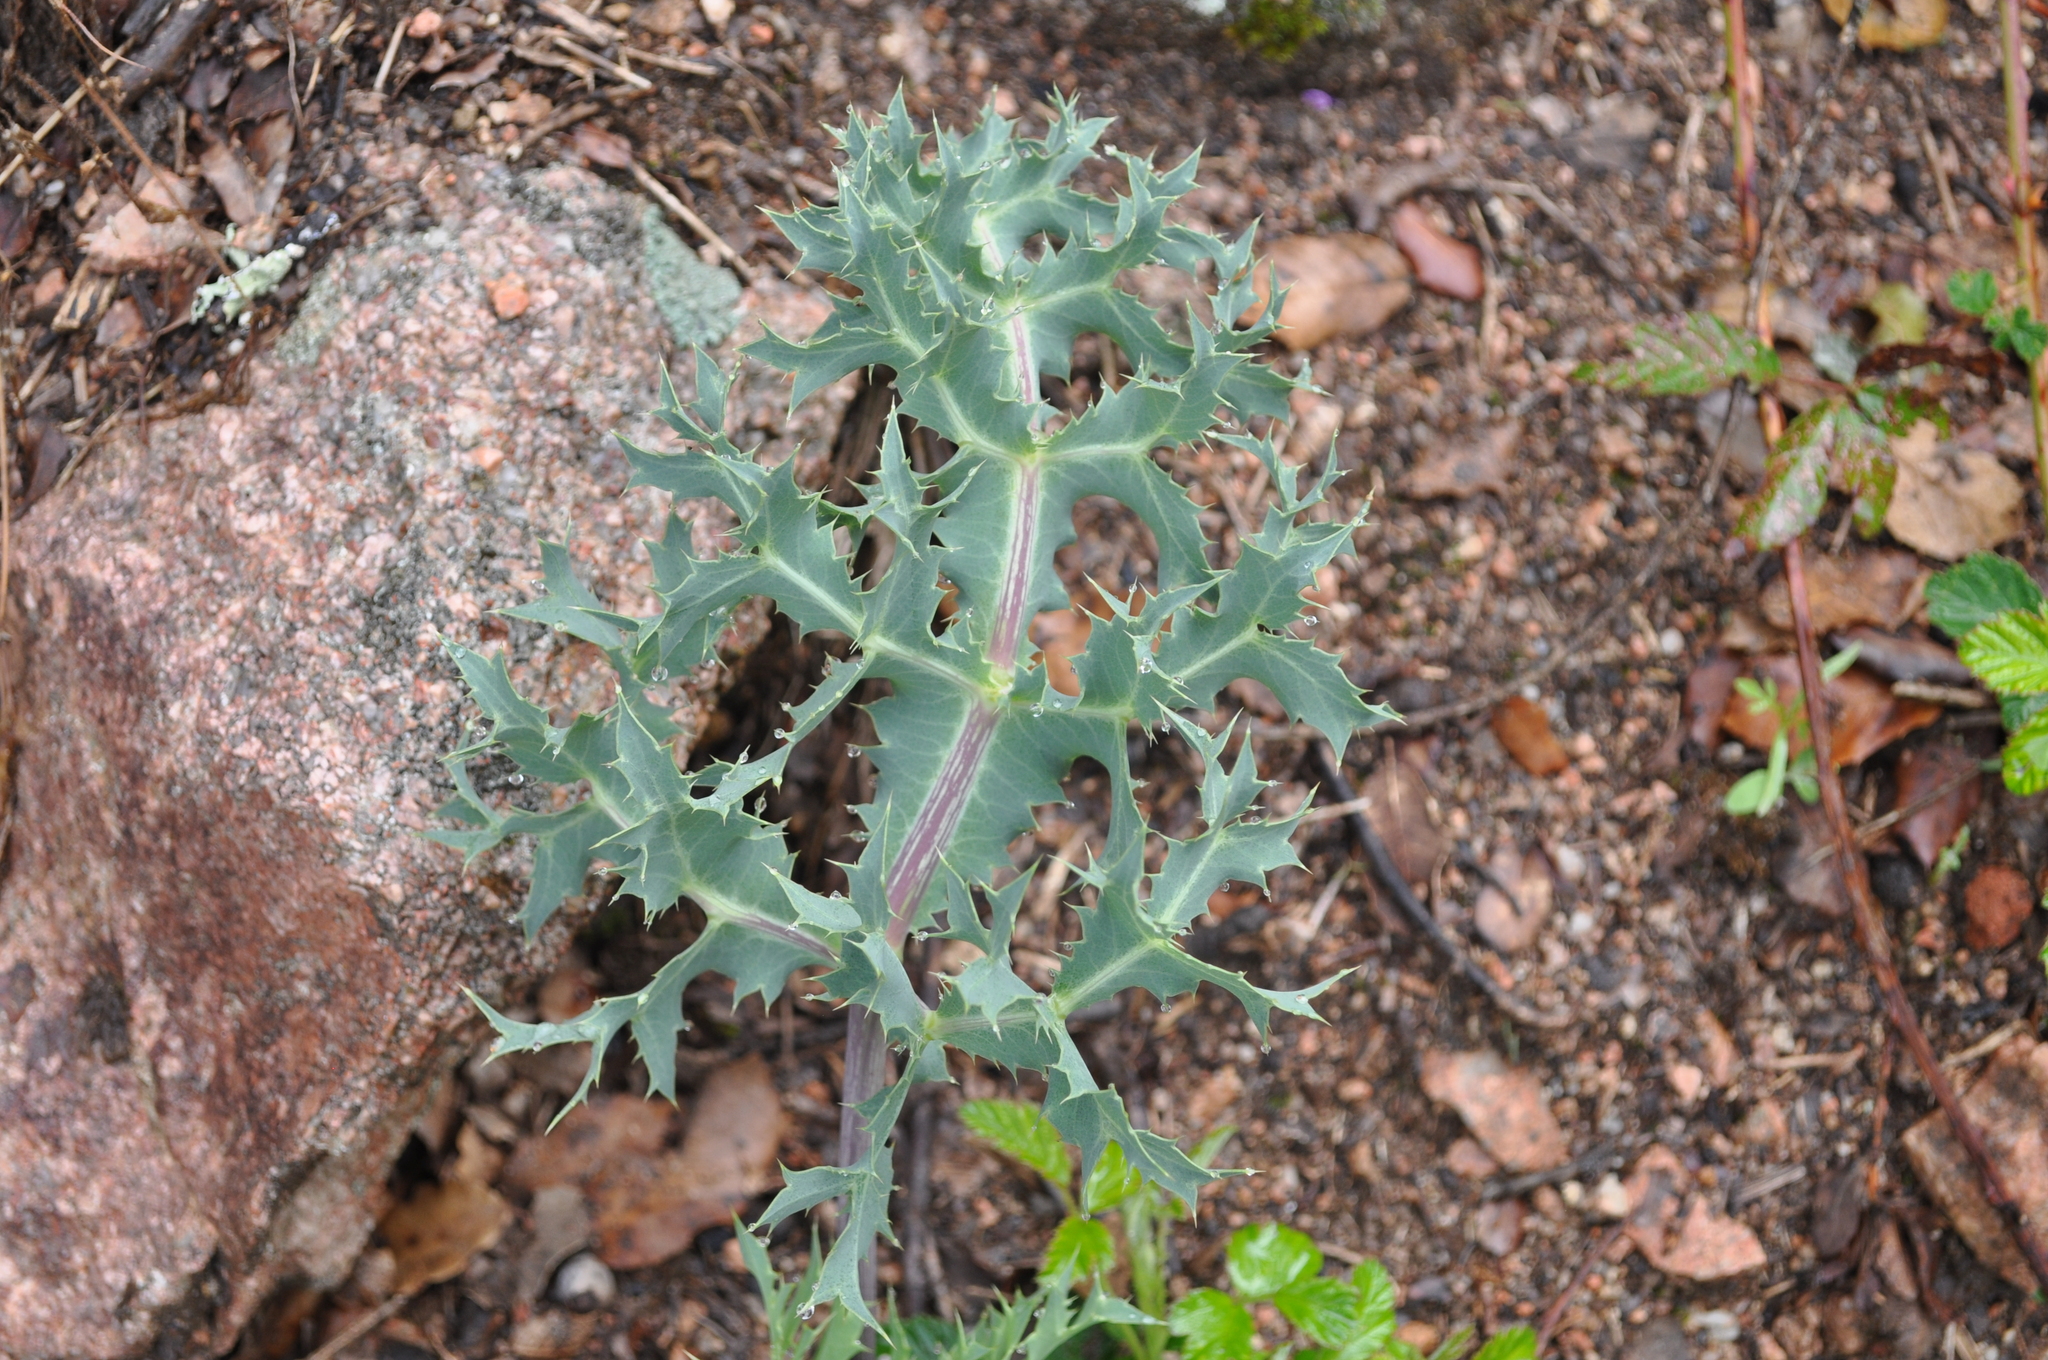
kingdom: Plantae
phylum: Tracheophyta
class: Magnoliopsida
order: Apiales
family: Apiaceae
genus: Eryngium
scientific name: Eryngium campestre
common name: Field eryngo
